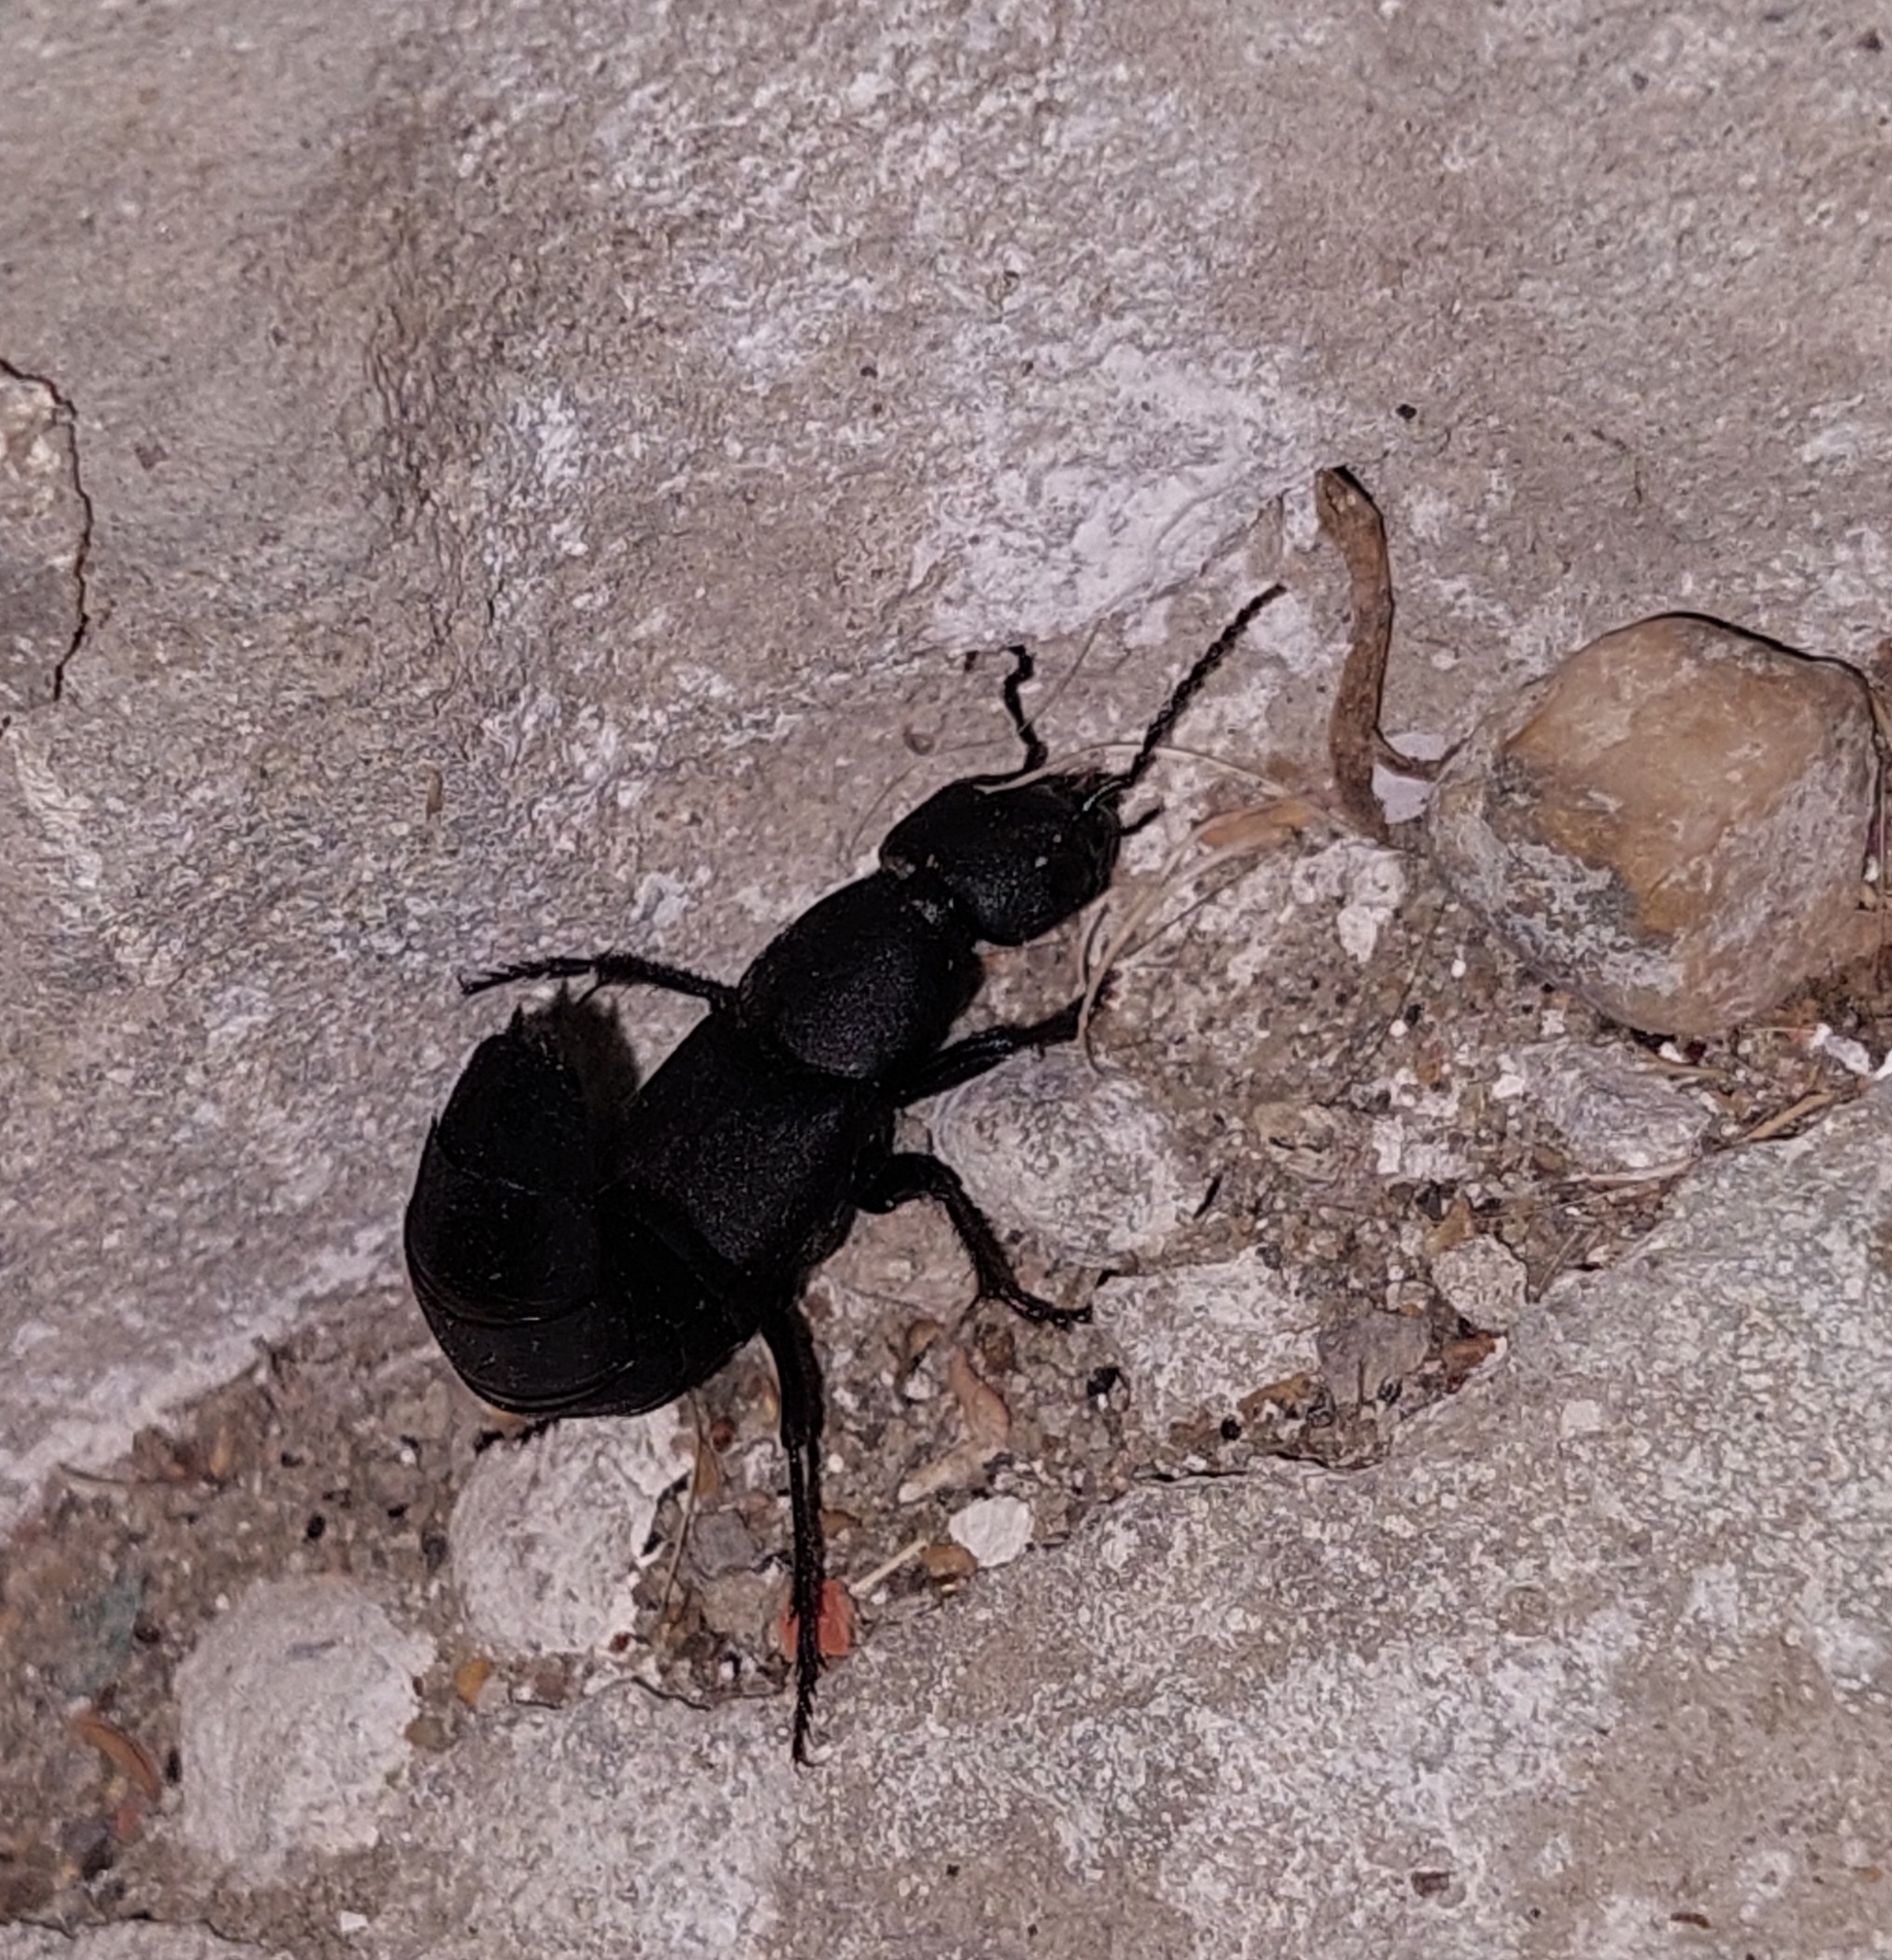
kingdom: Animalia
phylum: Arthropoda
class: Insecta
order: Coleoptera
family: Staphylinidae
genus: Ocypus
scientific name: Ocypus nitens
